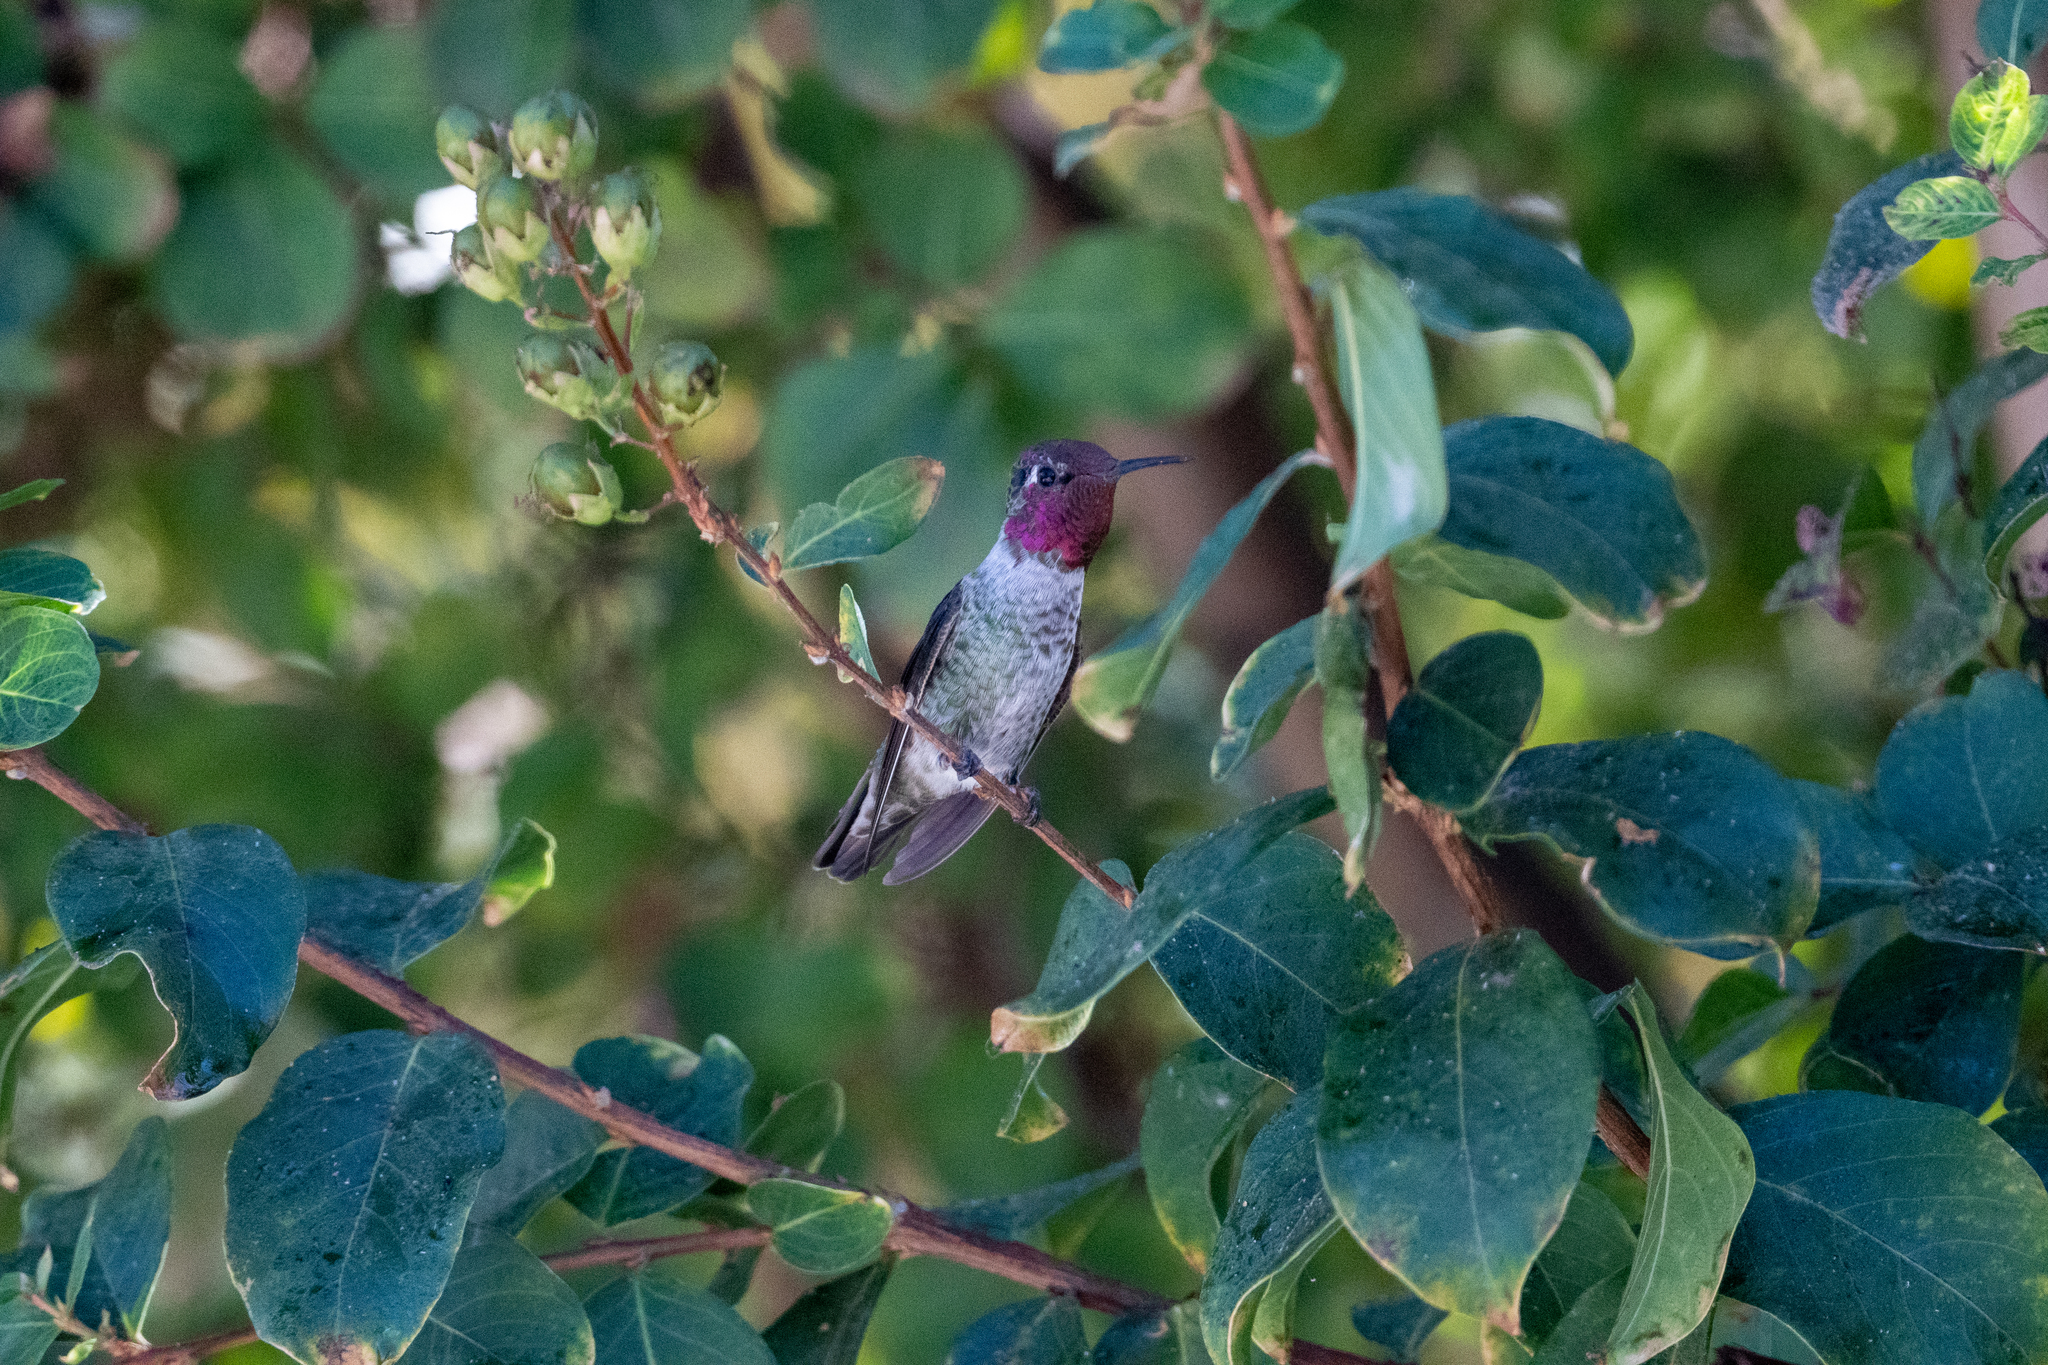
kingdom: Animalia
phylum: Chordata
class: Aves
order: Apodiformes
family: Trochilidae
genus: Calypte
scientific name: Calypte anna
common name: Anna's hummingbird
